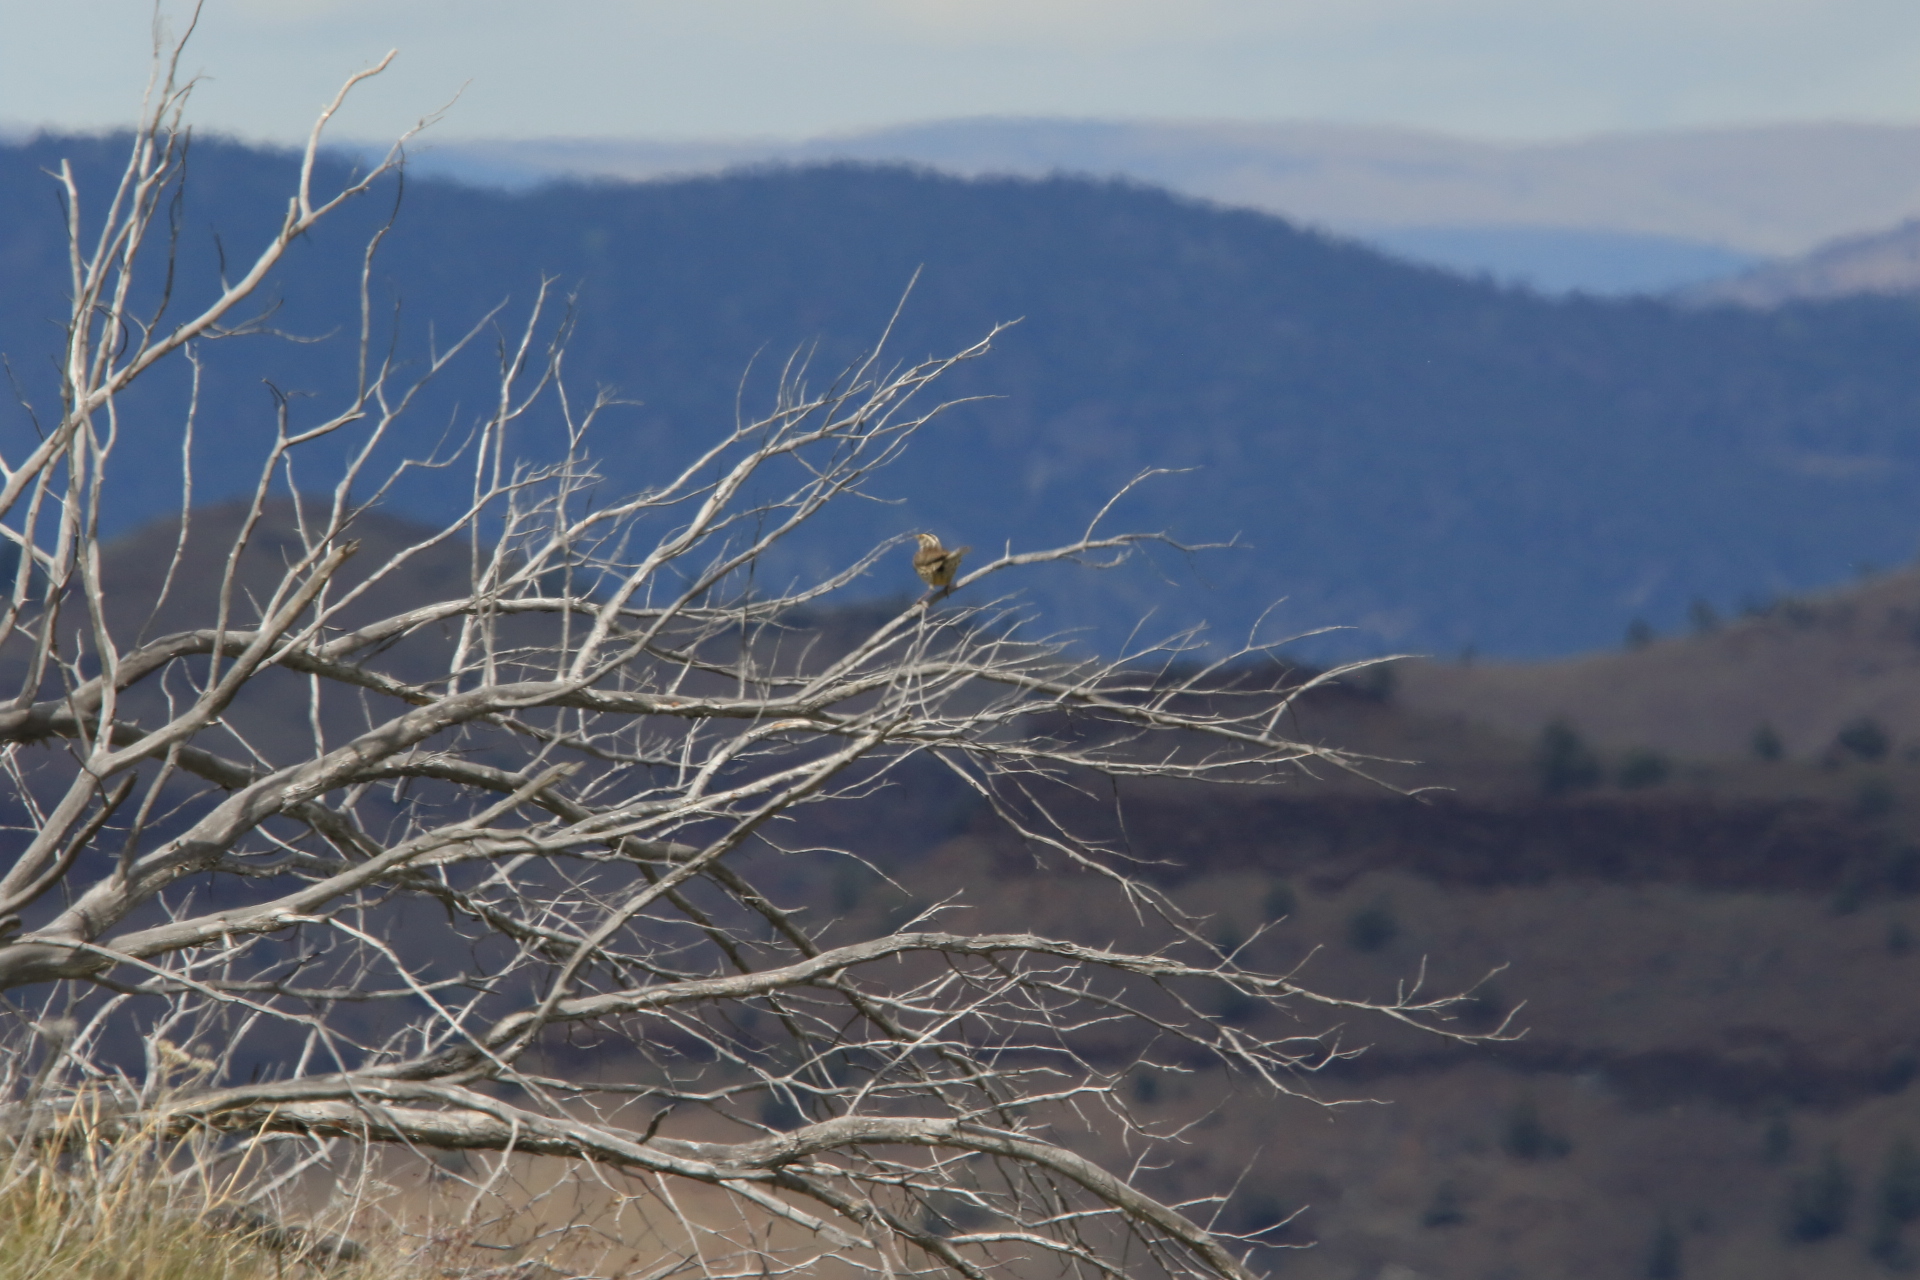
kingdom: Animalia
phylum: Chordata
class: Aves
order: Passeriformes
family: Icteridae
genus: Sturnella
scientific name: Sturnella neglecta
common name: Western meadowlark
